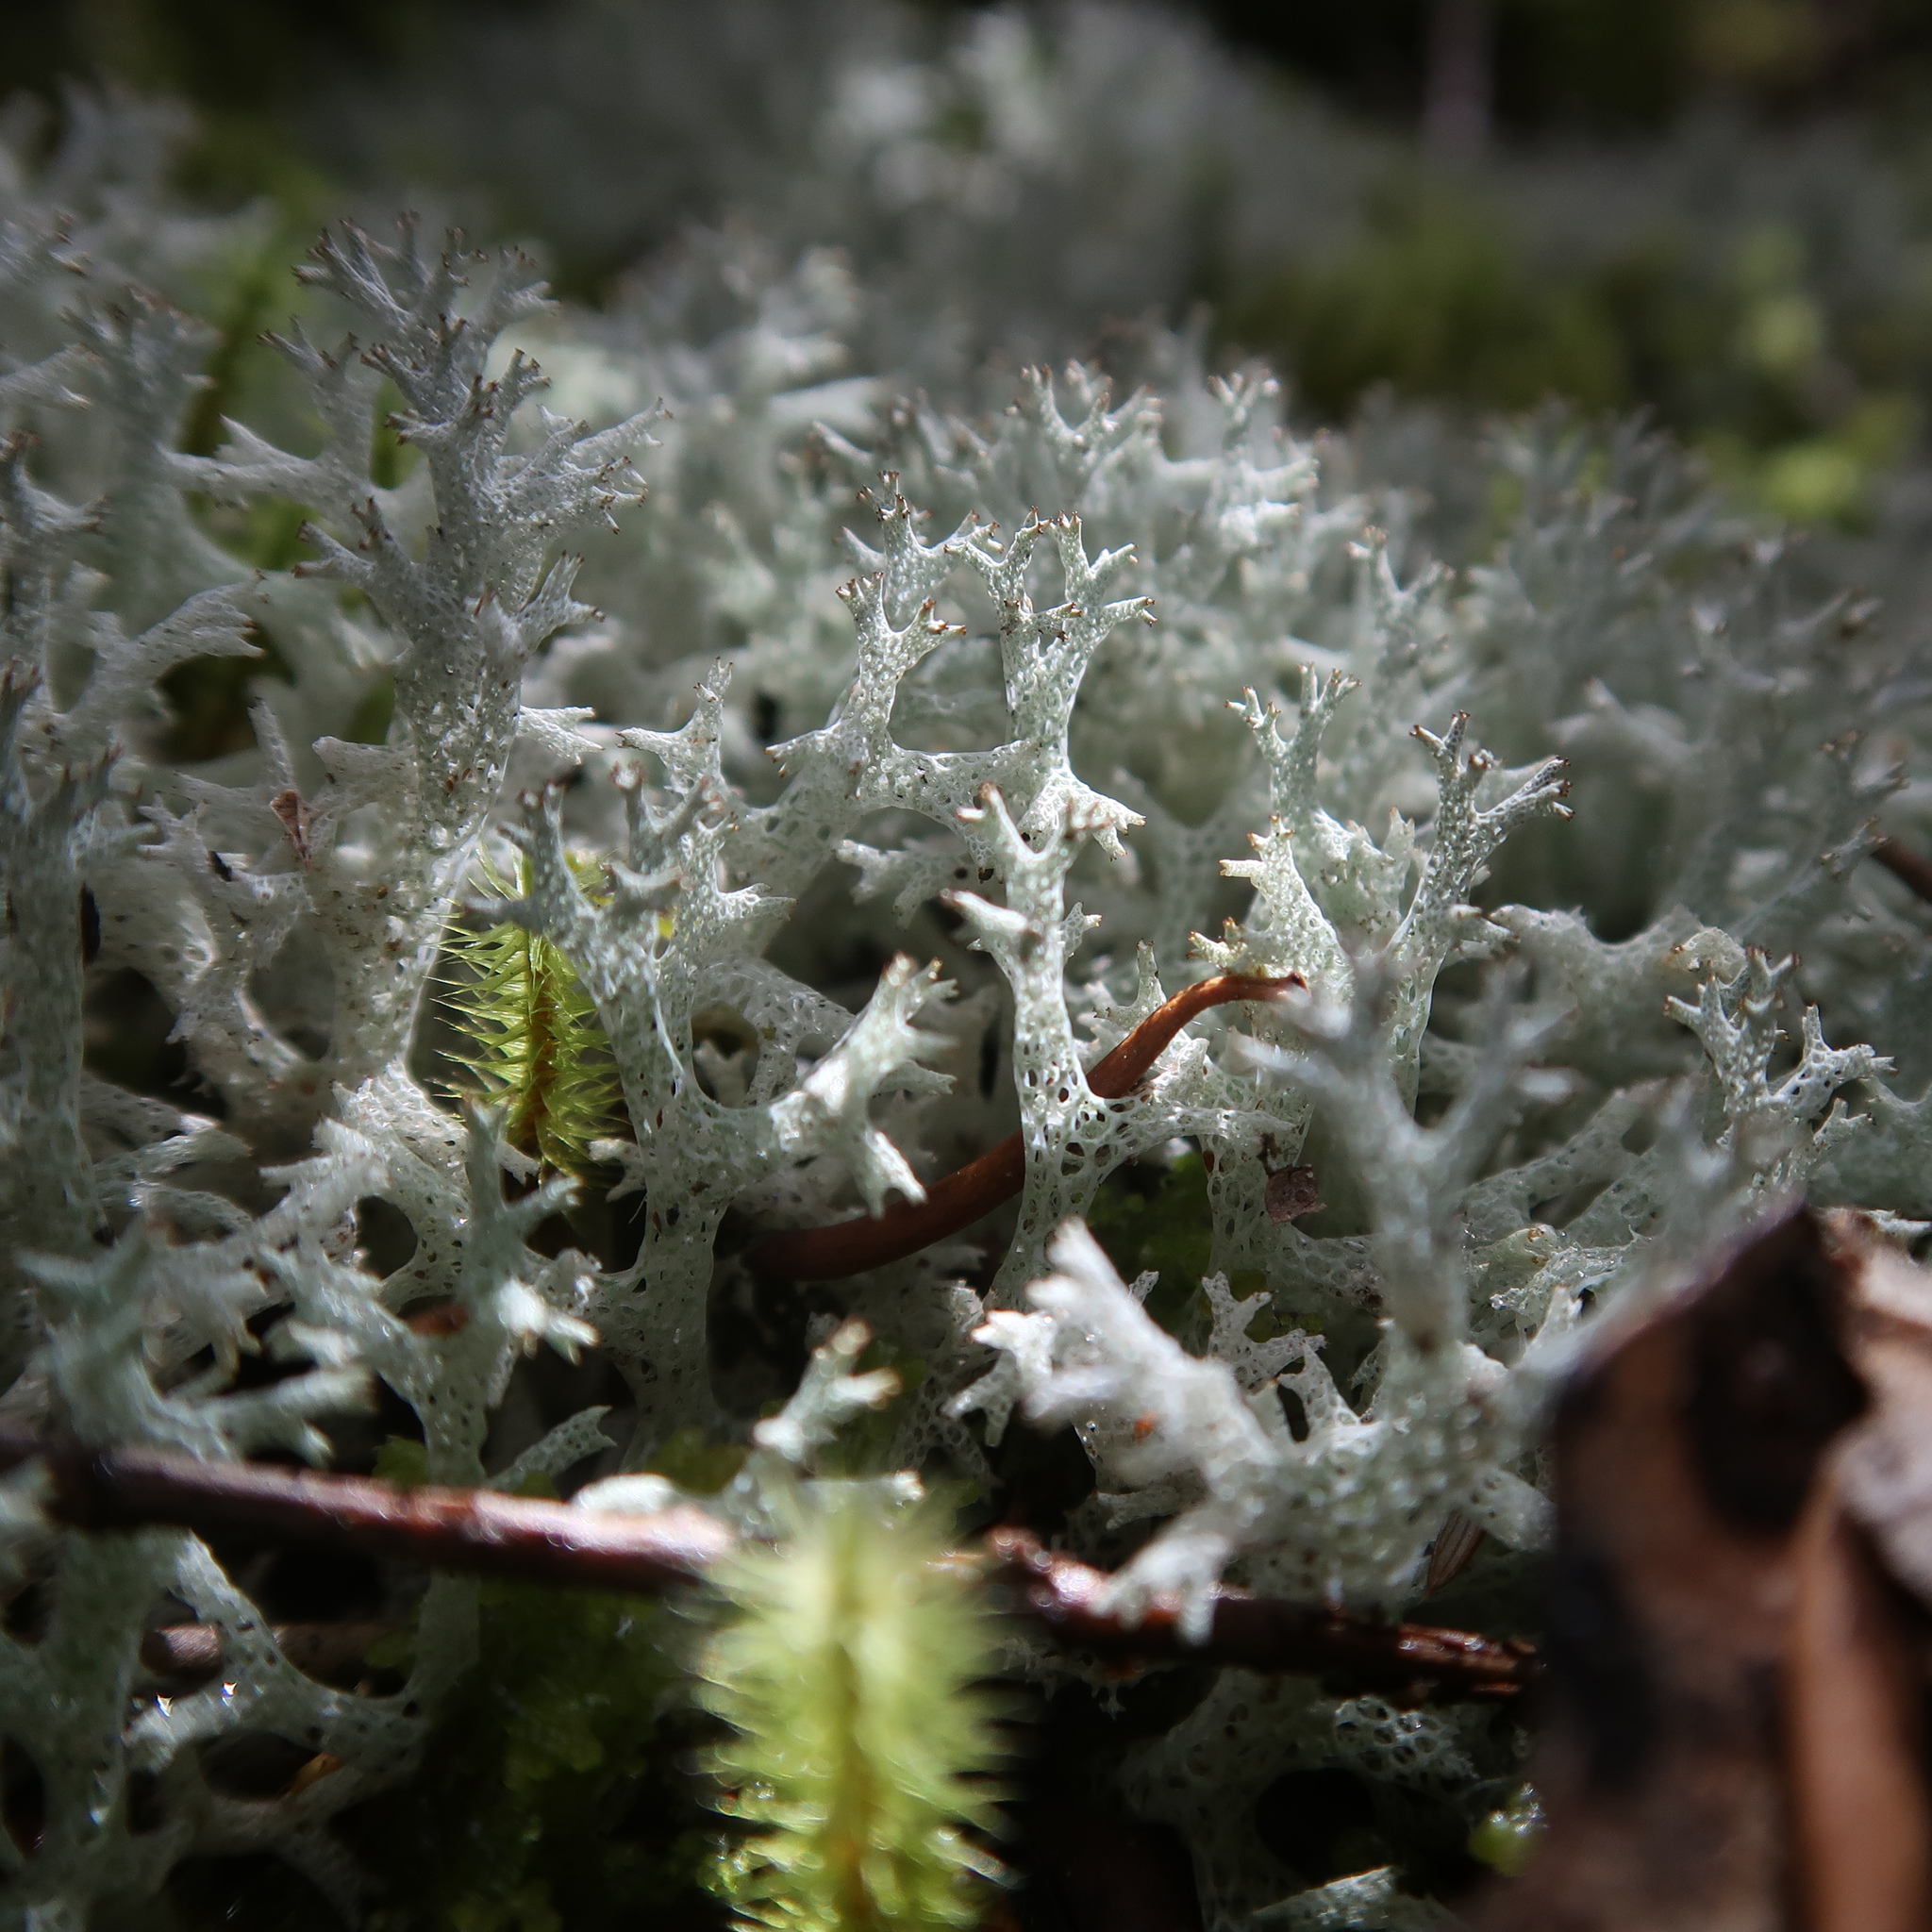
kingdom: Fungi
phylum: Ascomycota
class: Lecanoromycetes
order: Lecanorales
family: Cladoniaceae
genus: Pulchrocladia
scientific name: Pulchrocladia retipora
